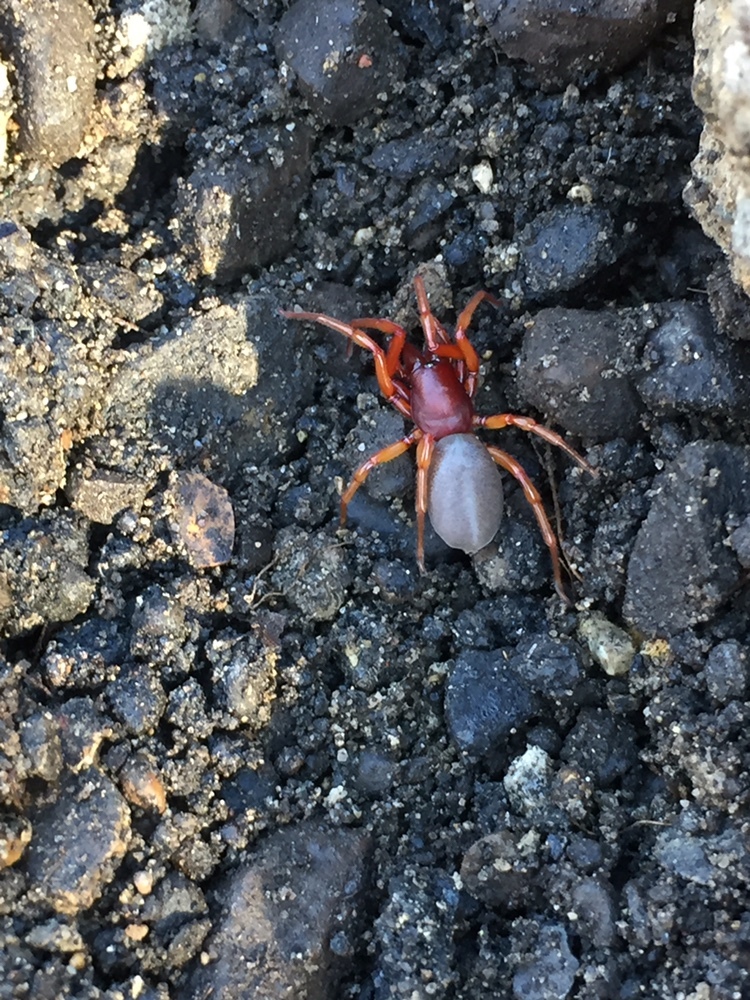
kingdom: Animalia
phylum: Arthropoda
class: Arachnida
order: Araneae
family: Dysderidae
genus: Dysdera
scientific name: Dysdera crocata
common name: Woodlouse spider
